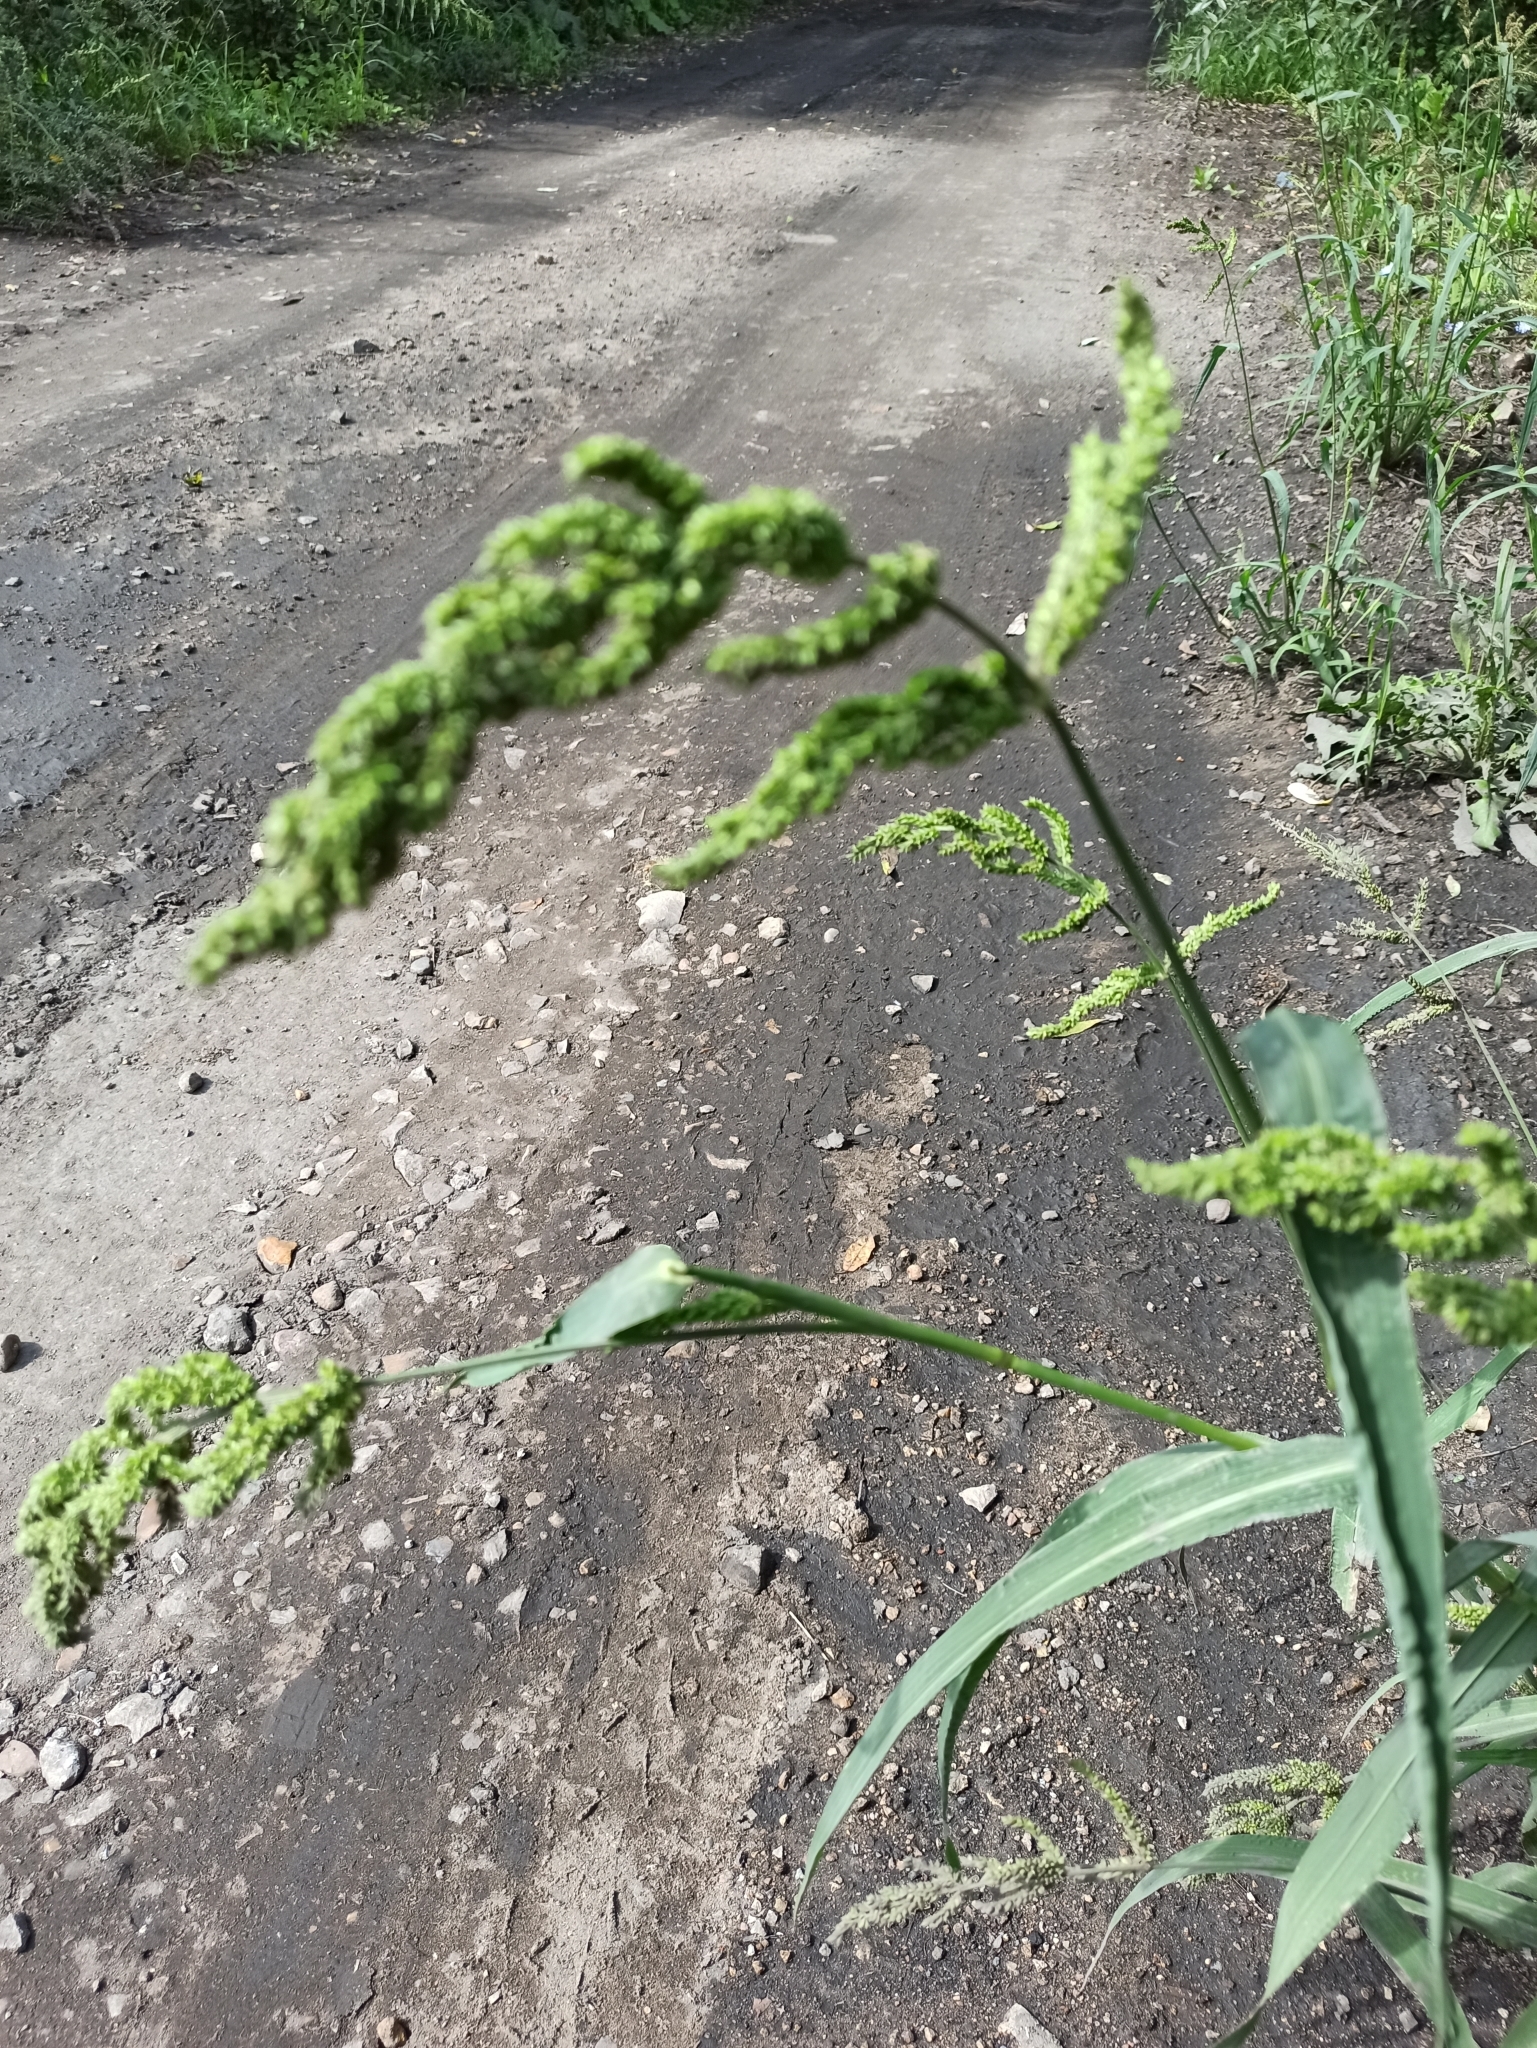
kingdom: Plantae
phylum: Tracheophyta
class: Liliopsida
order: Poales
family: Poaceae
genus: Echinochloa
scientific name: Echinochloa crus-galli
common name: Cockspur
